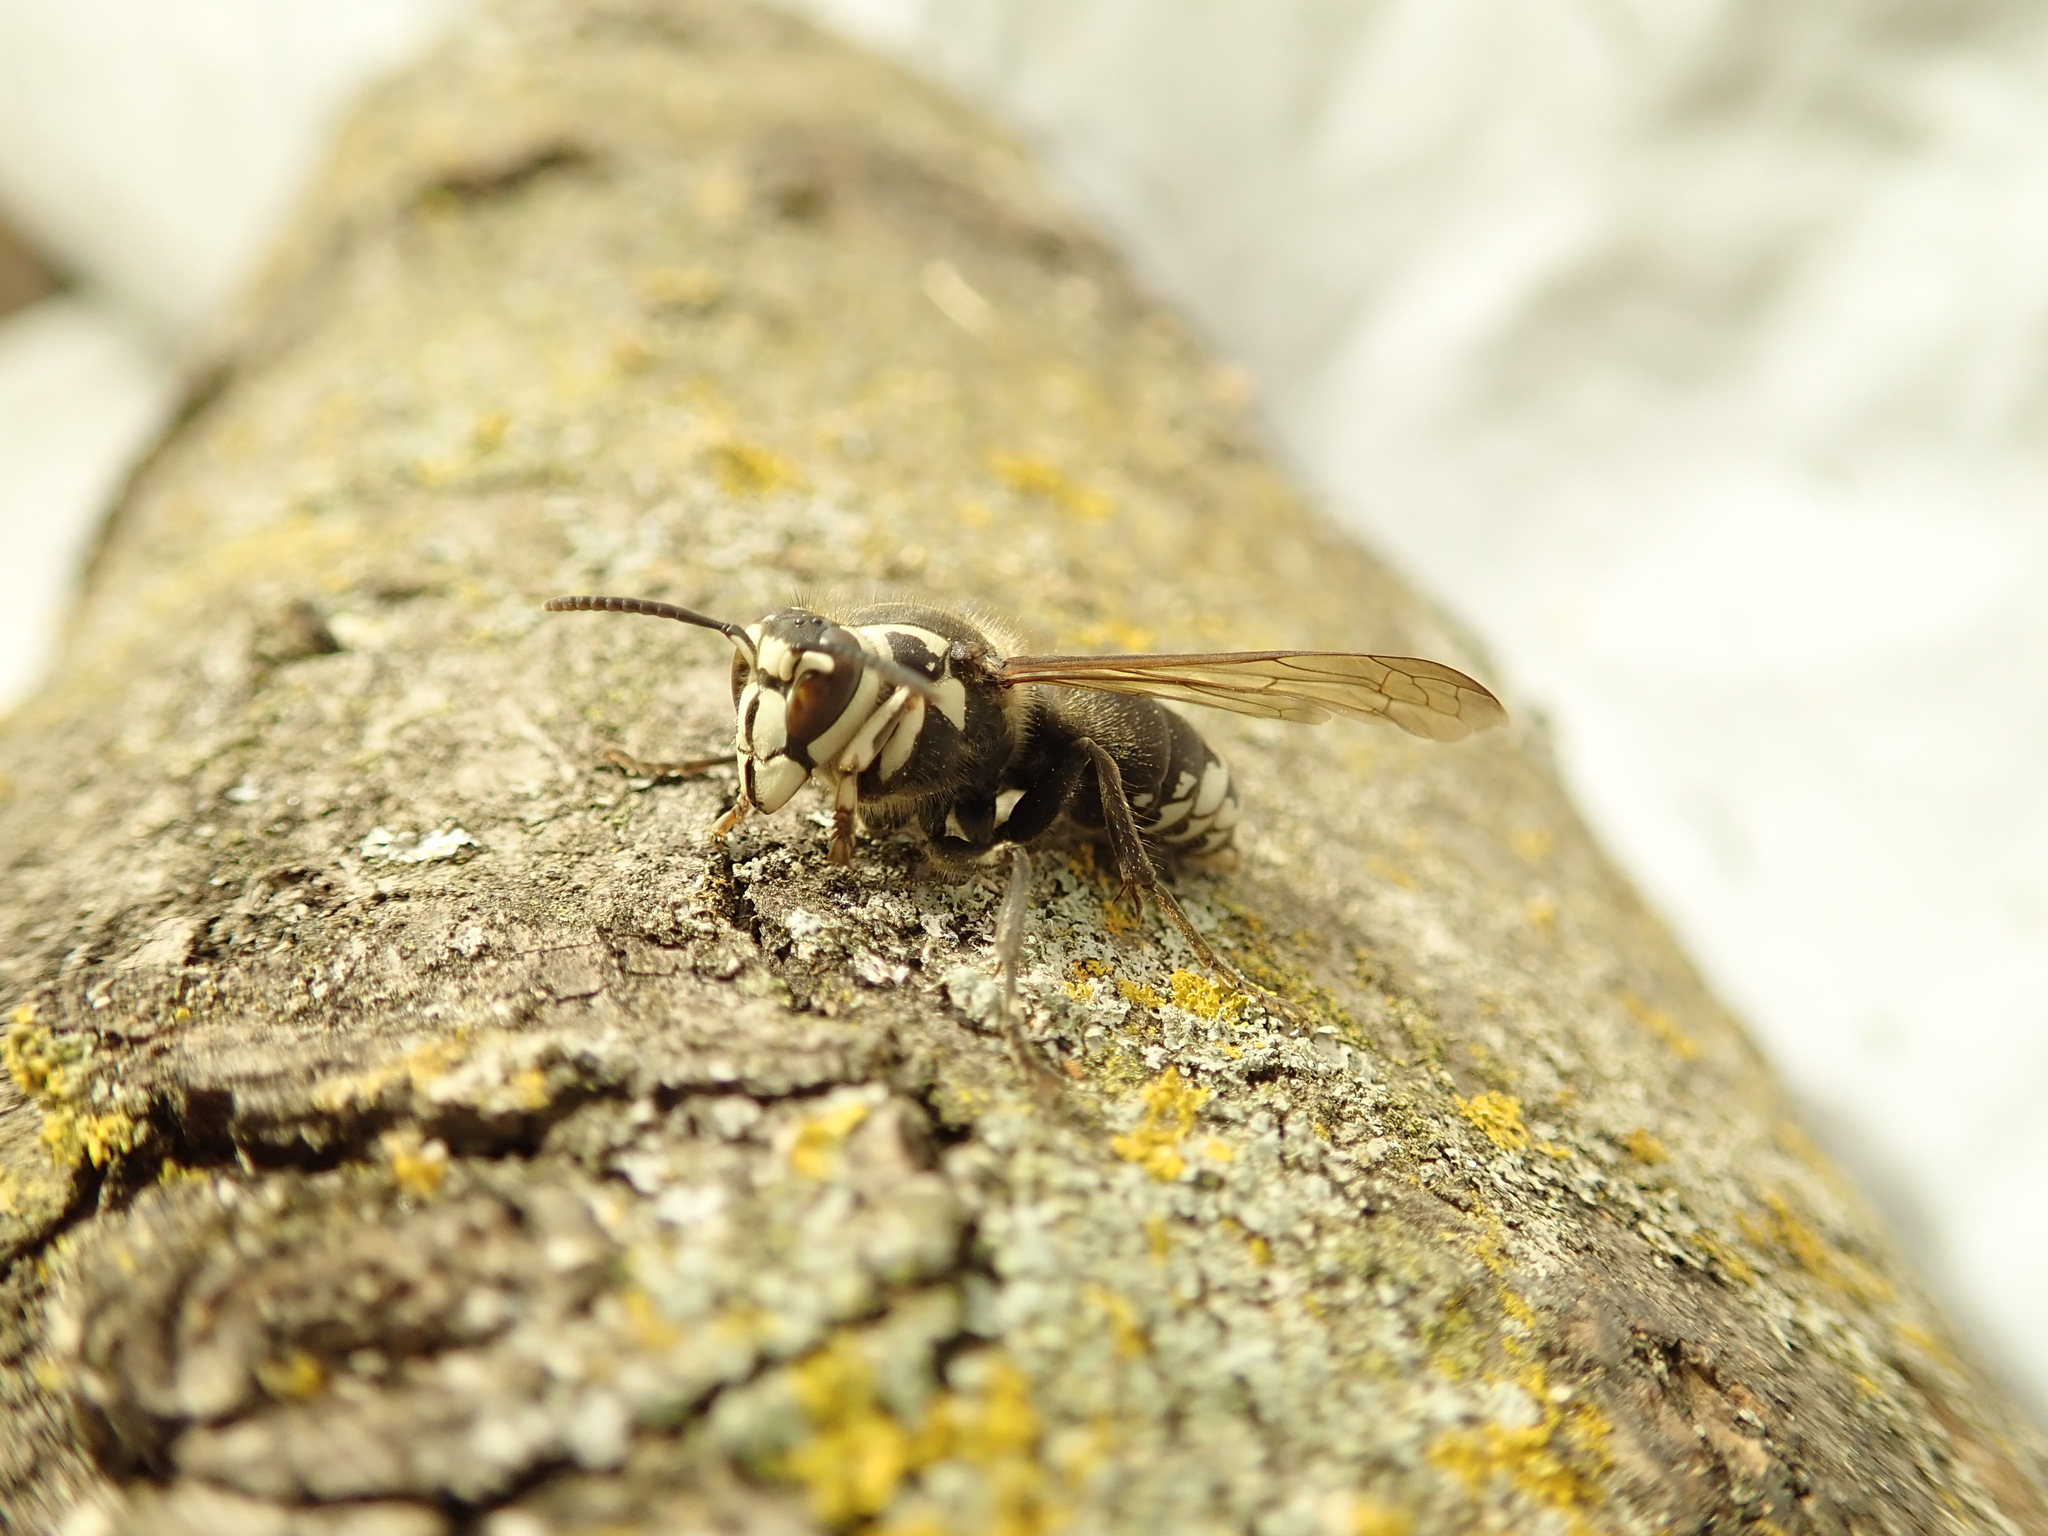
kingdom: Animalia
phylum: Arthropoda
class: Insecta
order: Hymenoptera
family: Vespidae
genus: Dolichovespula
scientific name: Dolichovespula maculata
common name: Bald-faced hornet
